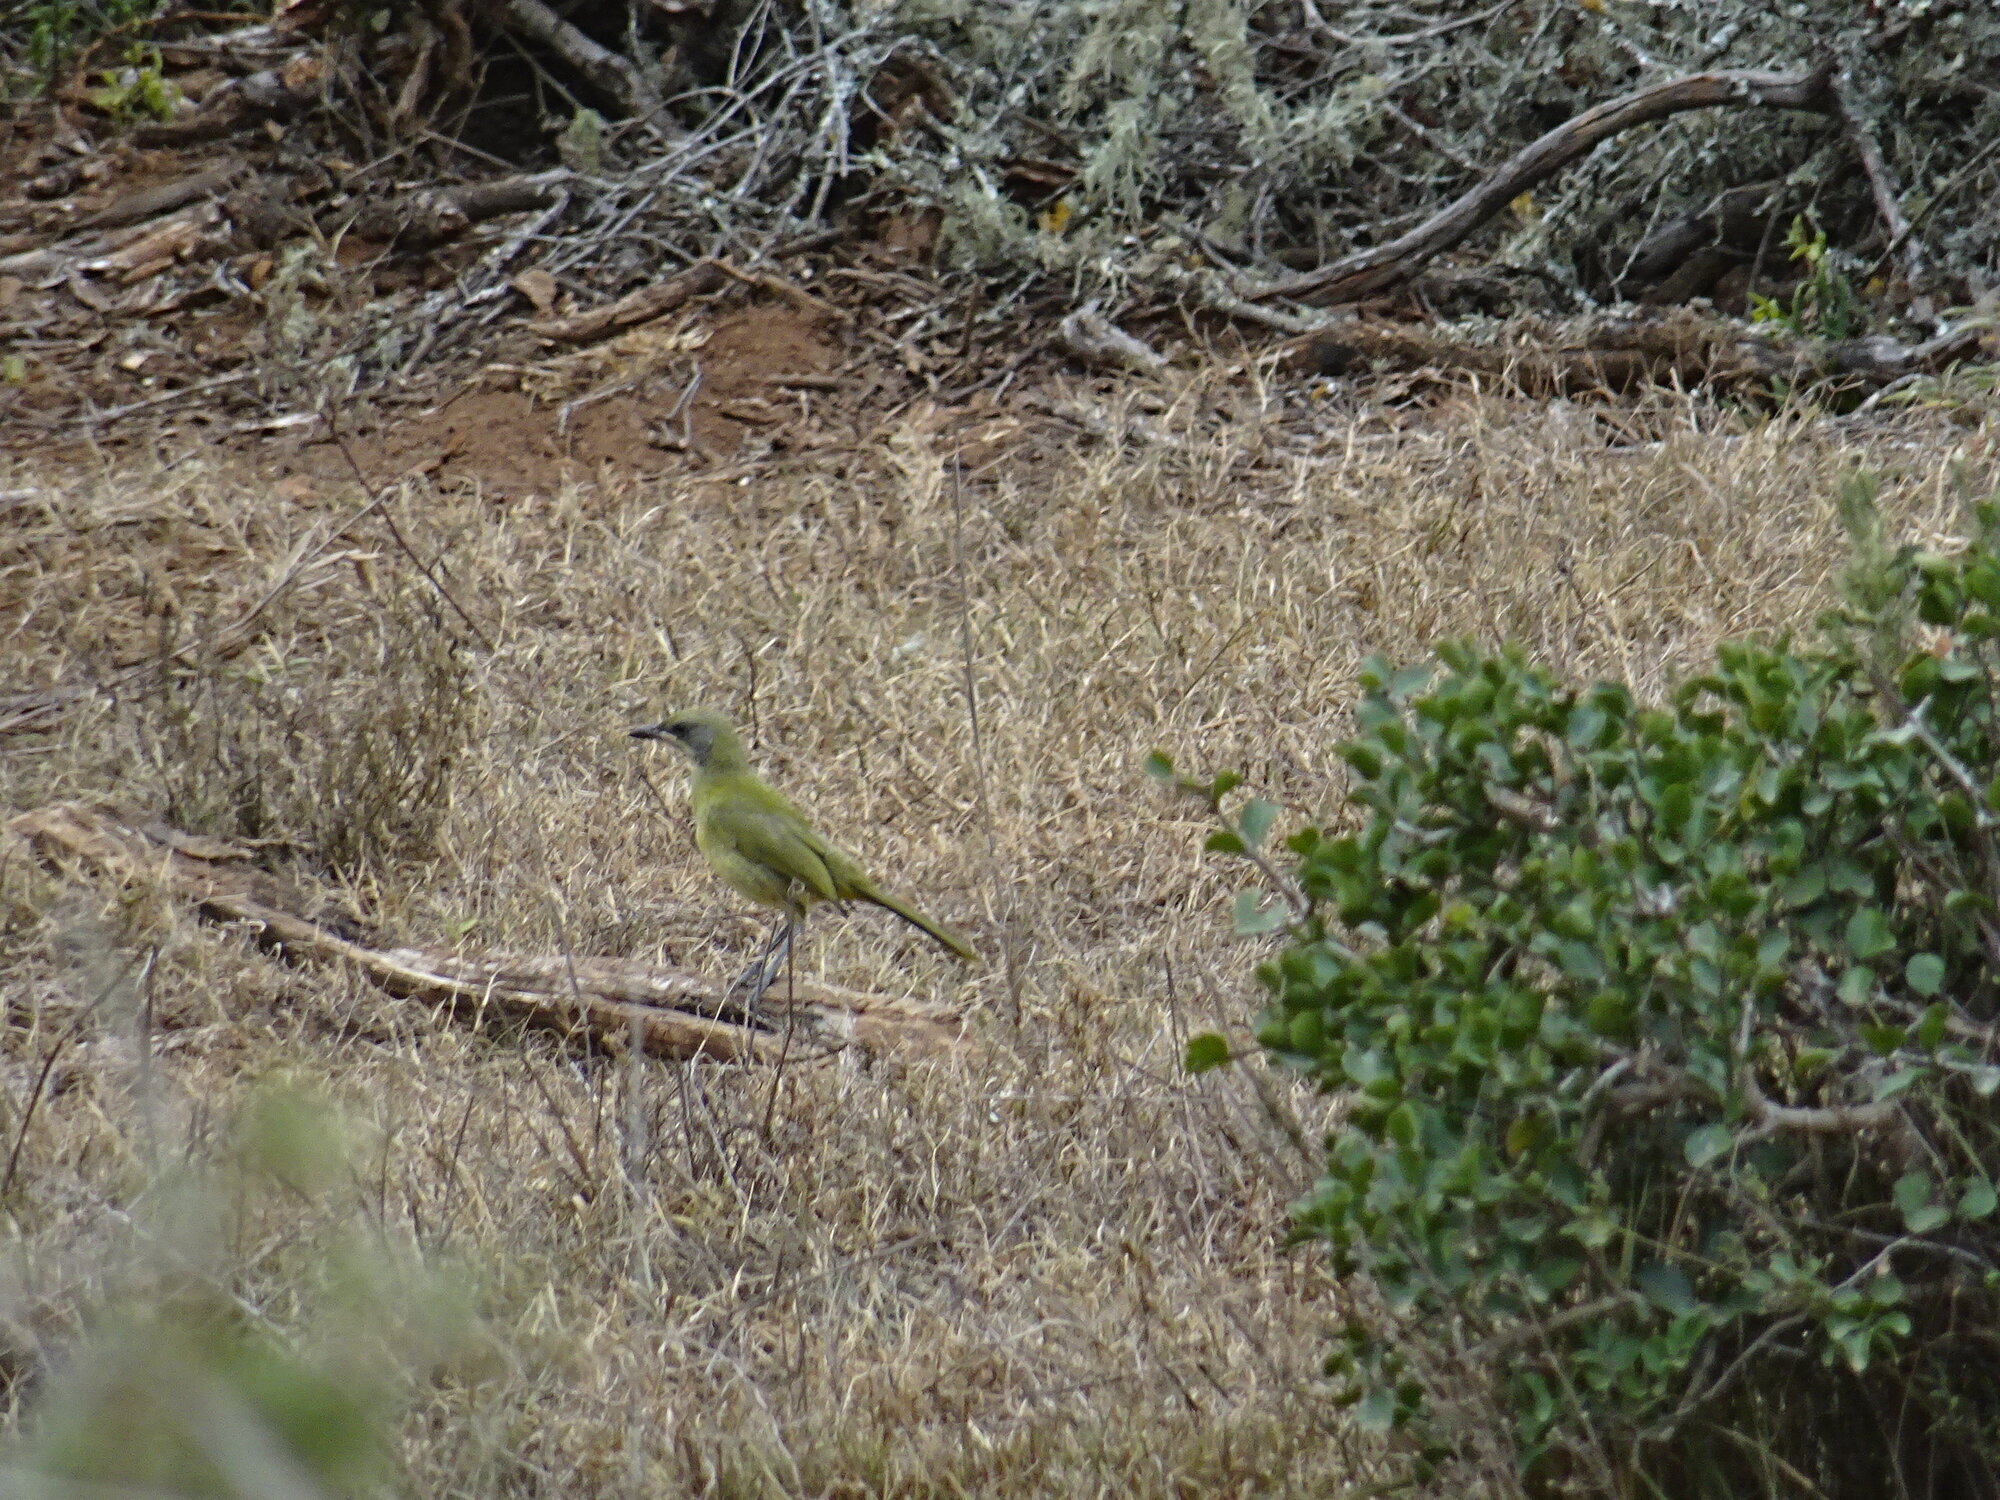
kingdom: Animalia
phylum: Chordata
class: Aves
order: Passeriformes
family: Malaconotidae
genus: Telophorus
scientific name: Telophorus zeylonus
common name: Bokmakierie
